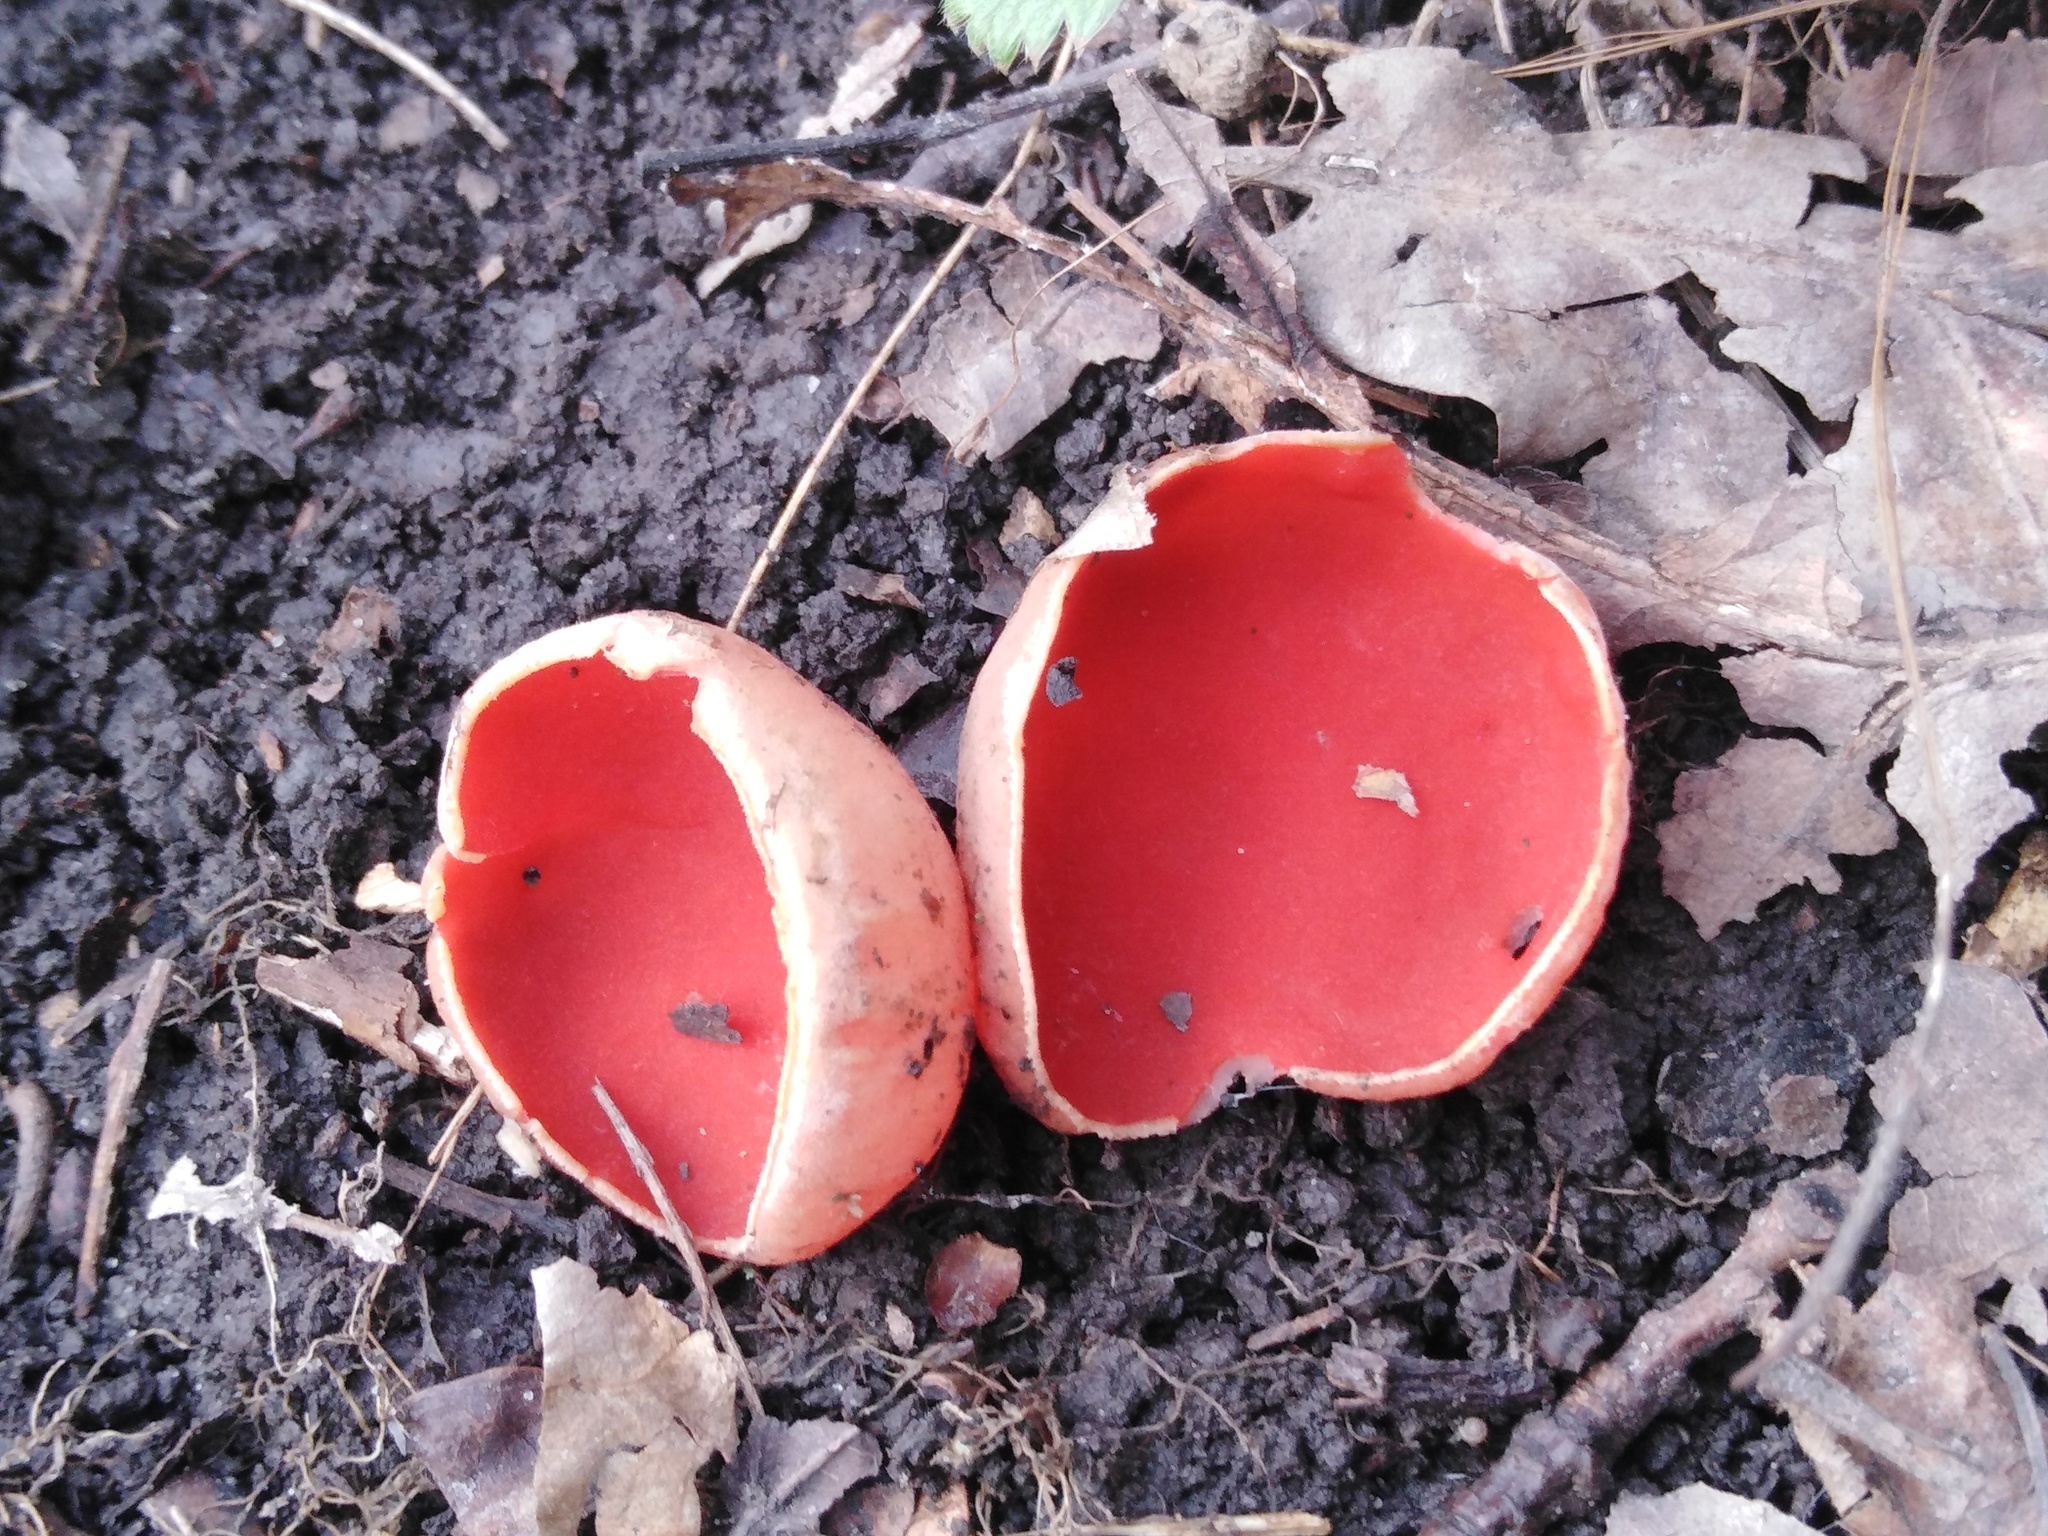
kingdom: Fungi
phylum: Ascomycota
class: Pezizomycetes
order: Pezizales
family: Sarcoscyphaceae
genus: Sarcoscypha
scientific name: Sarcoscypha austriaca
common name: Scarlet elfcup
